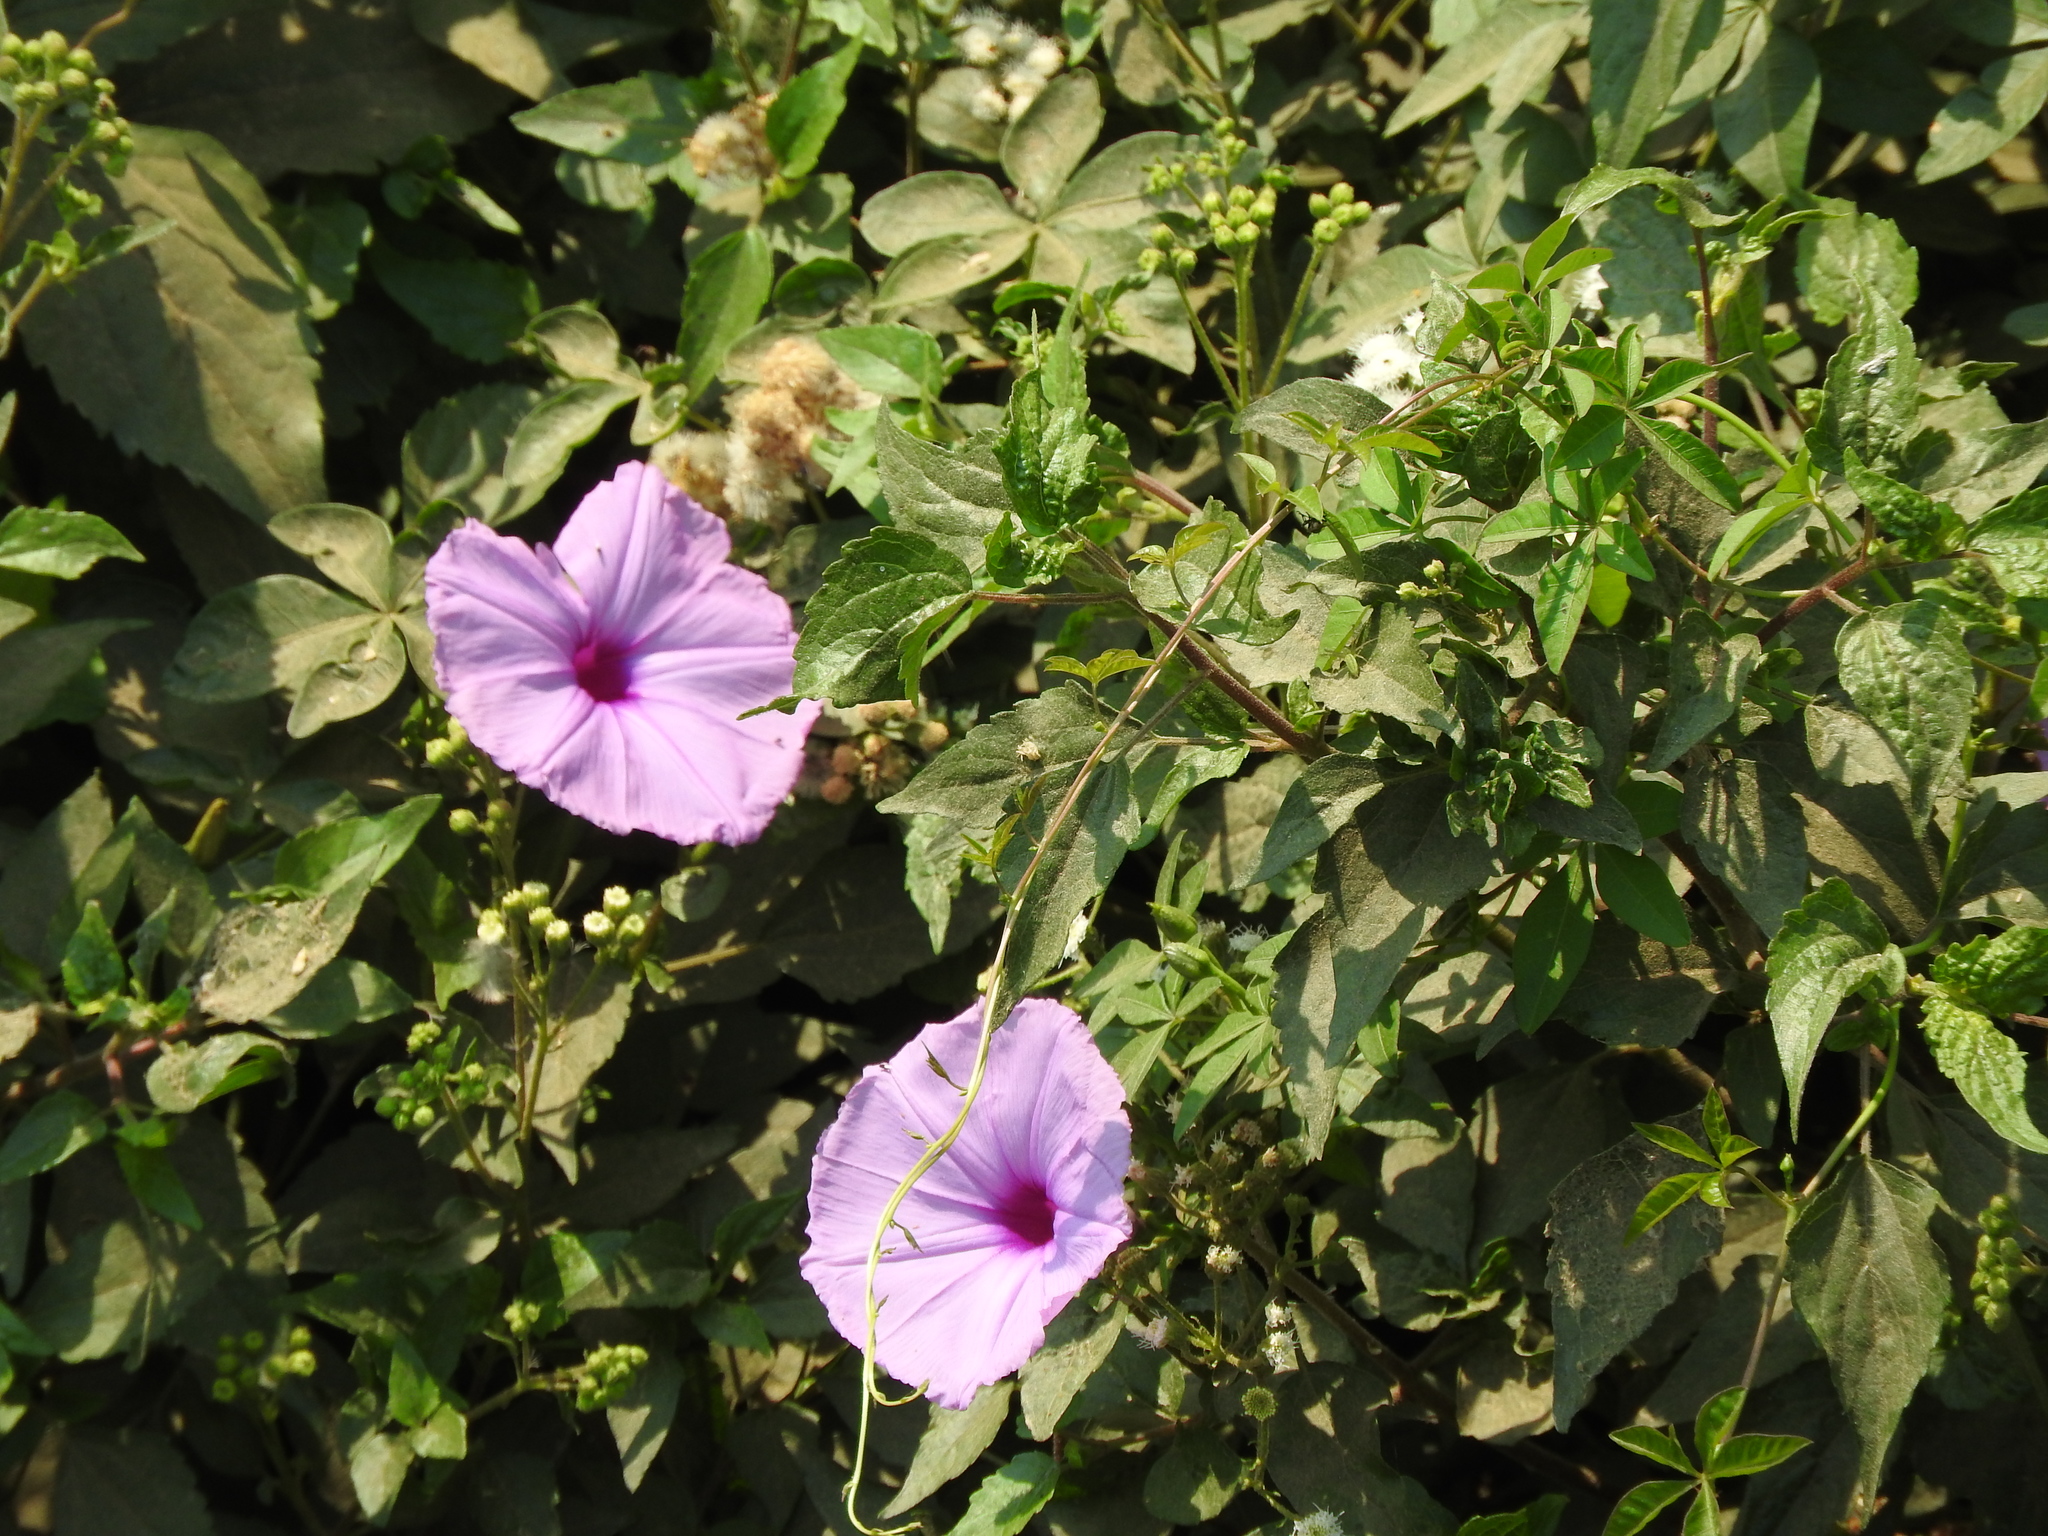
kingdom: Plantae
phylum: Tracheophyta
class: Magnoliopsida
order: Solanales
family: Convolvulaceae
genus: Ipomoea
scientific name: Ipomoea cairica
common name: Mile a minute vine
